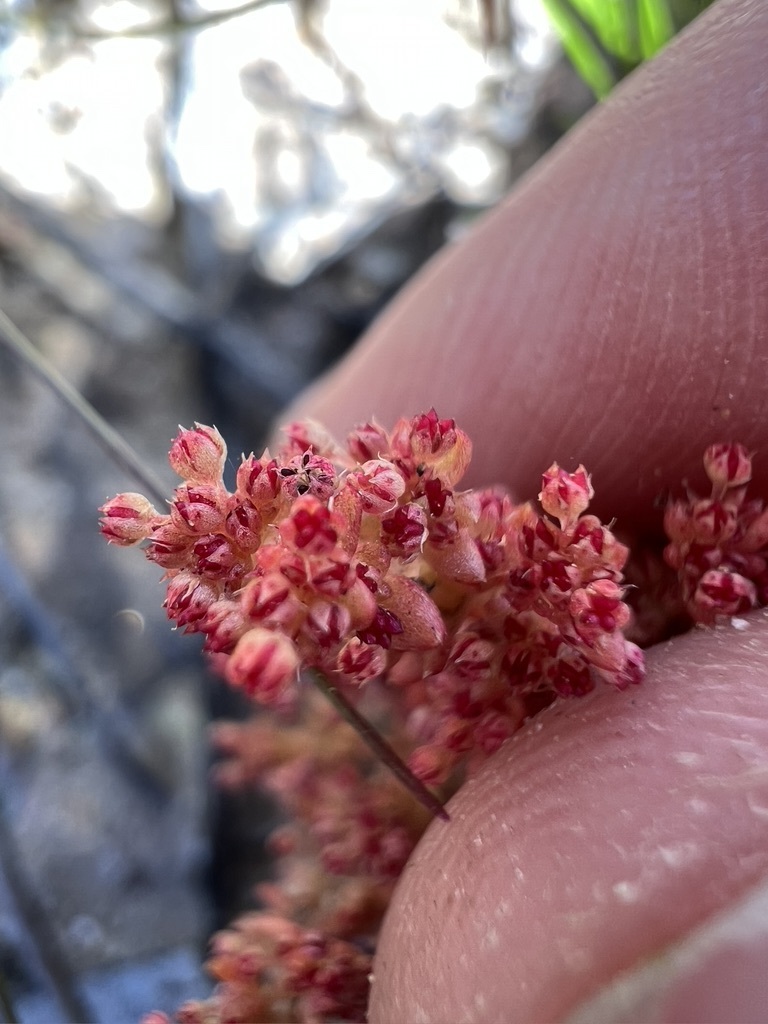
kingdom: Plantae
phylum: Tracheophyta
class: Magnoliopsida
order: Saxifragales
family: Crassulaceae
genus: Crassula
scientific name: Crassula connata
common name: Erect pygmyweed
